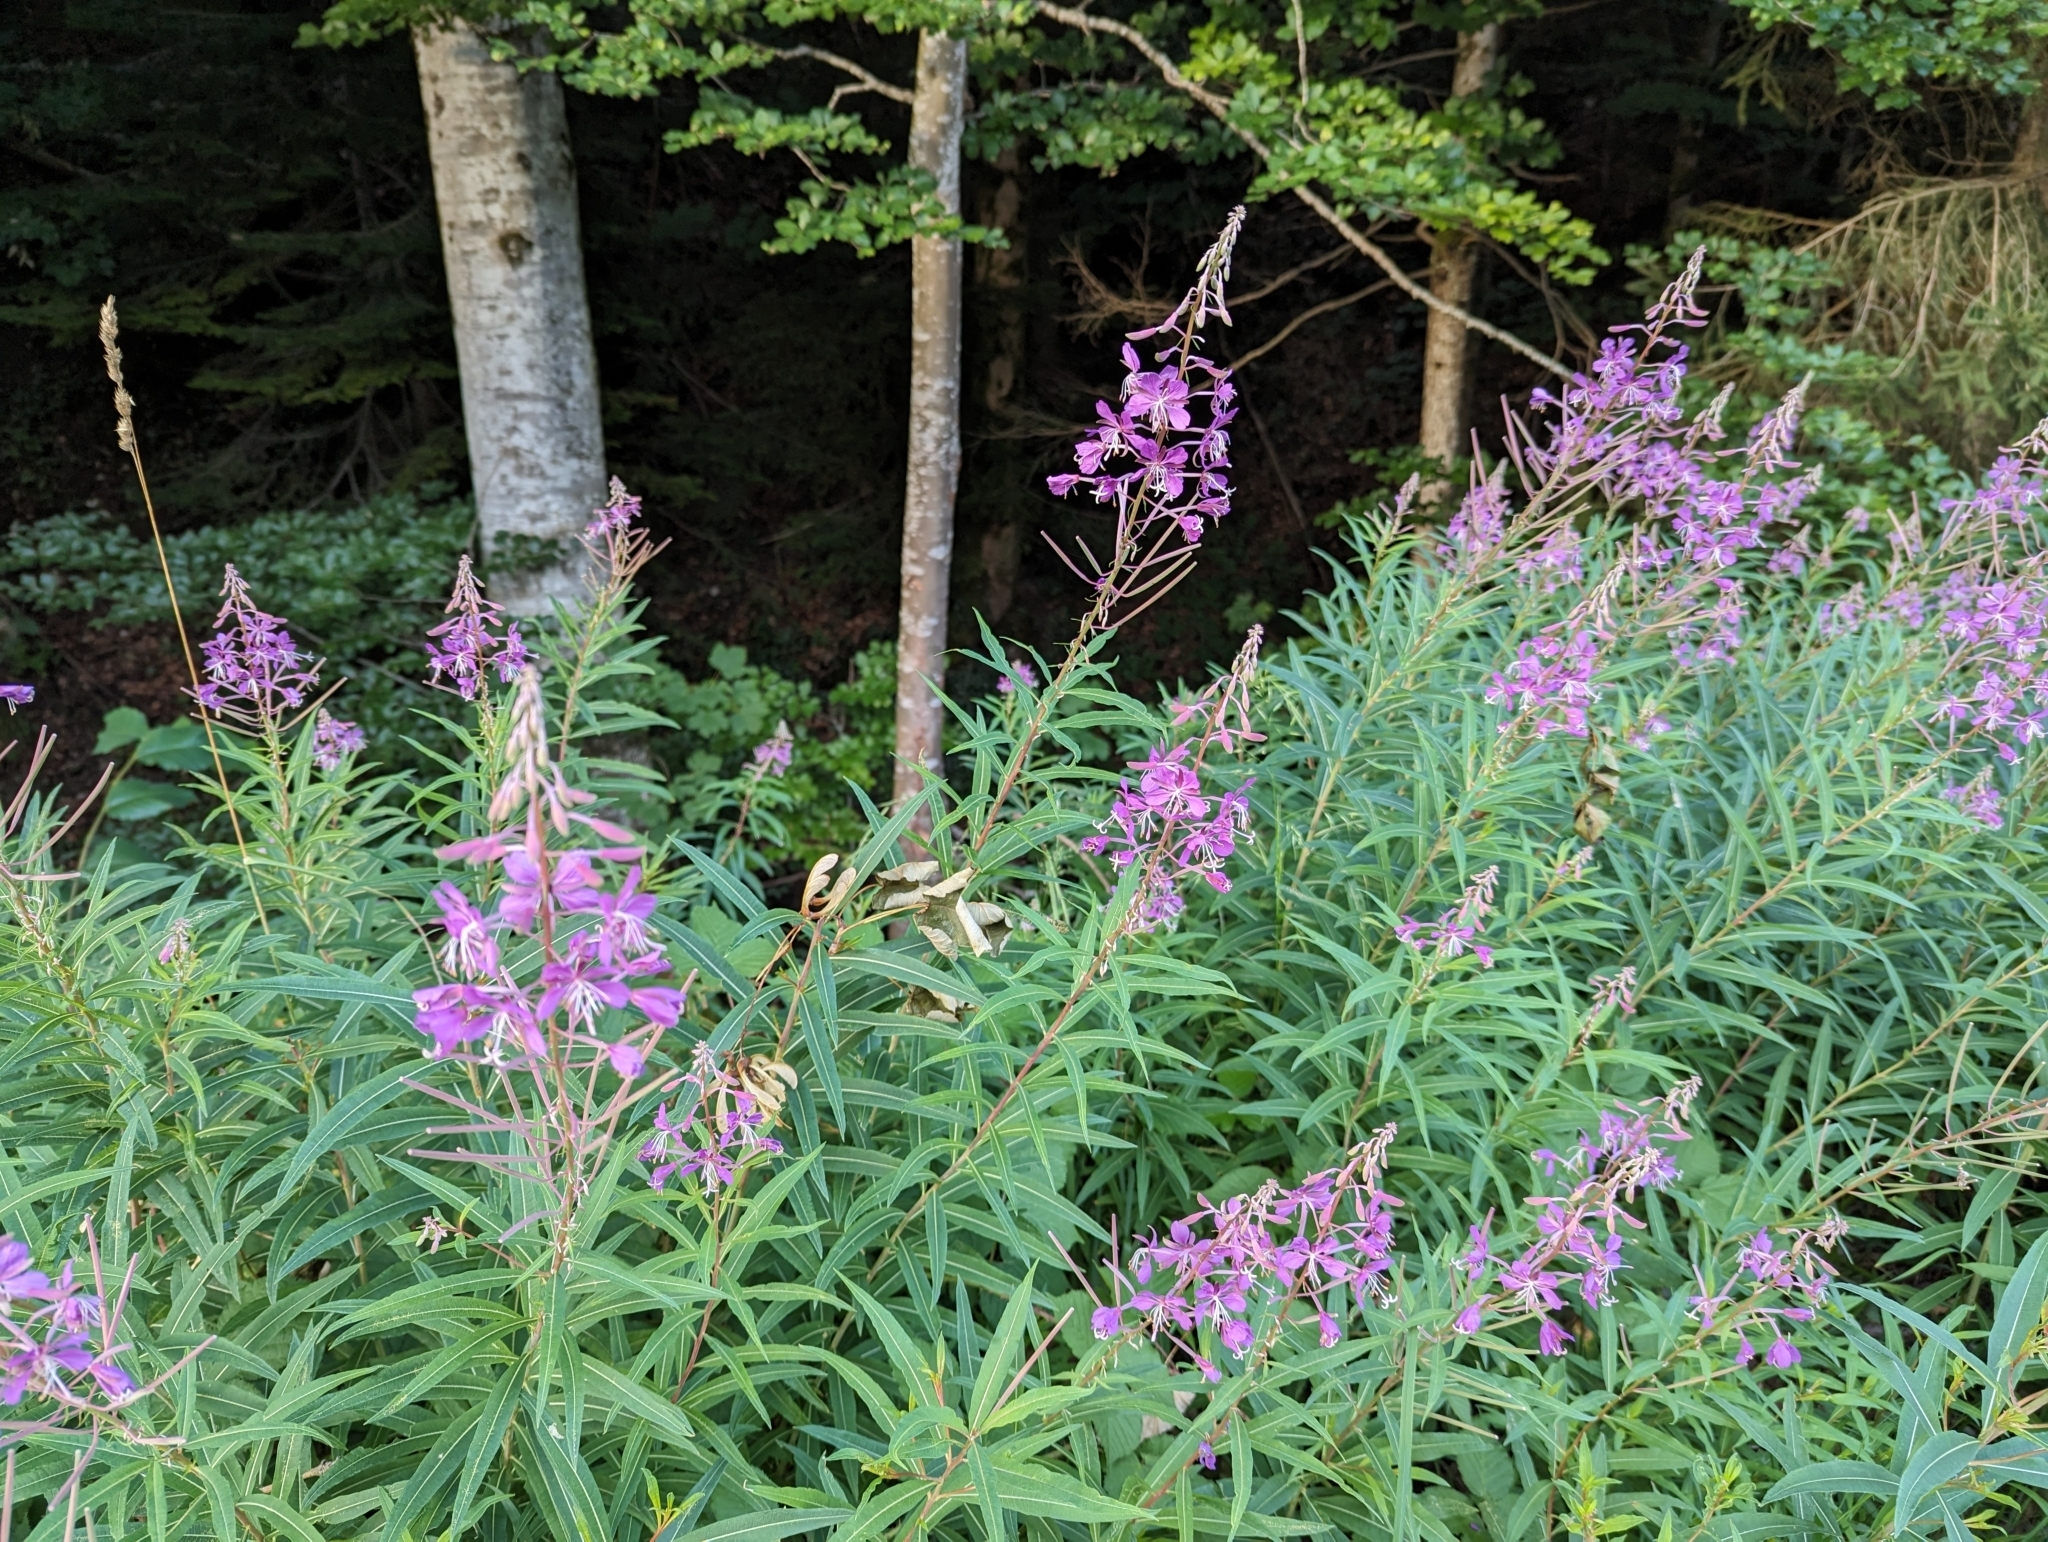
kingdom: Plantae
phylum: Tracheophyta
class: Magnoliopsida
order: Myrtales
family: Onagraceae
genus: Chamaenerion
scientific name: Chamaenerion angustifolium
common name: Fireweed
